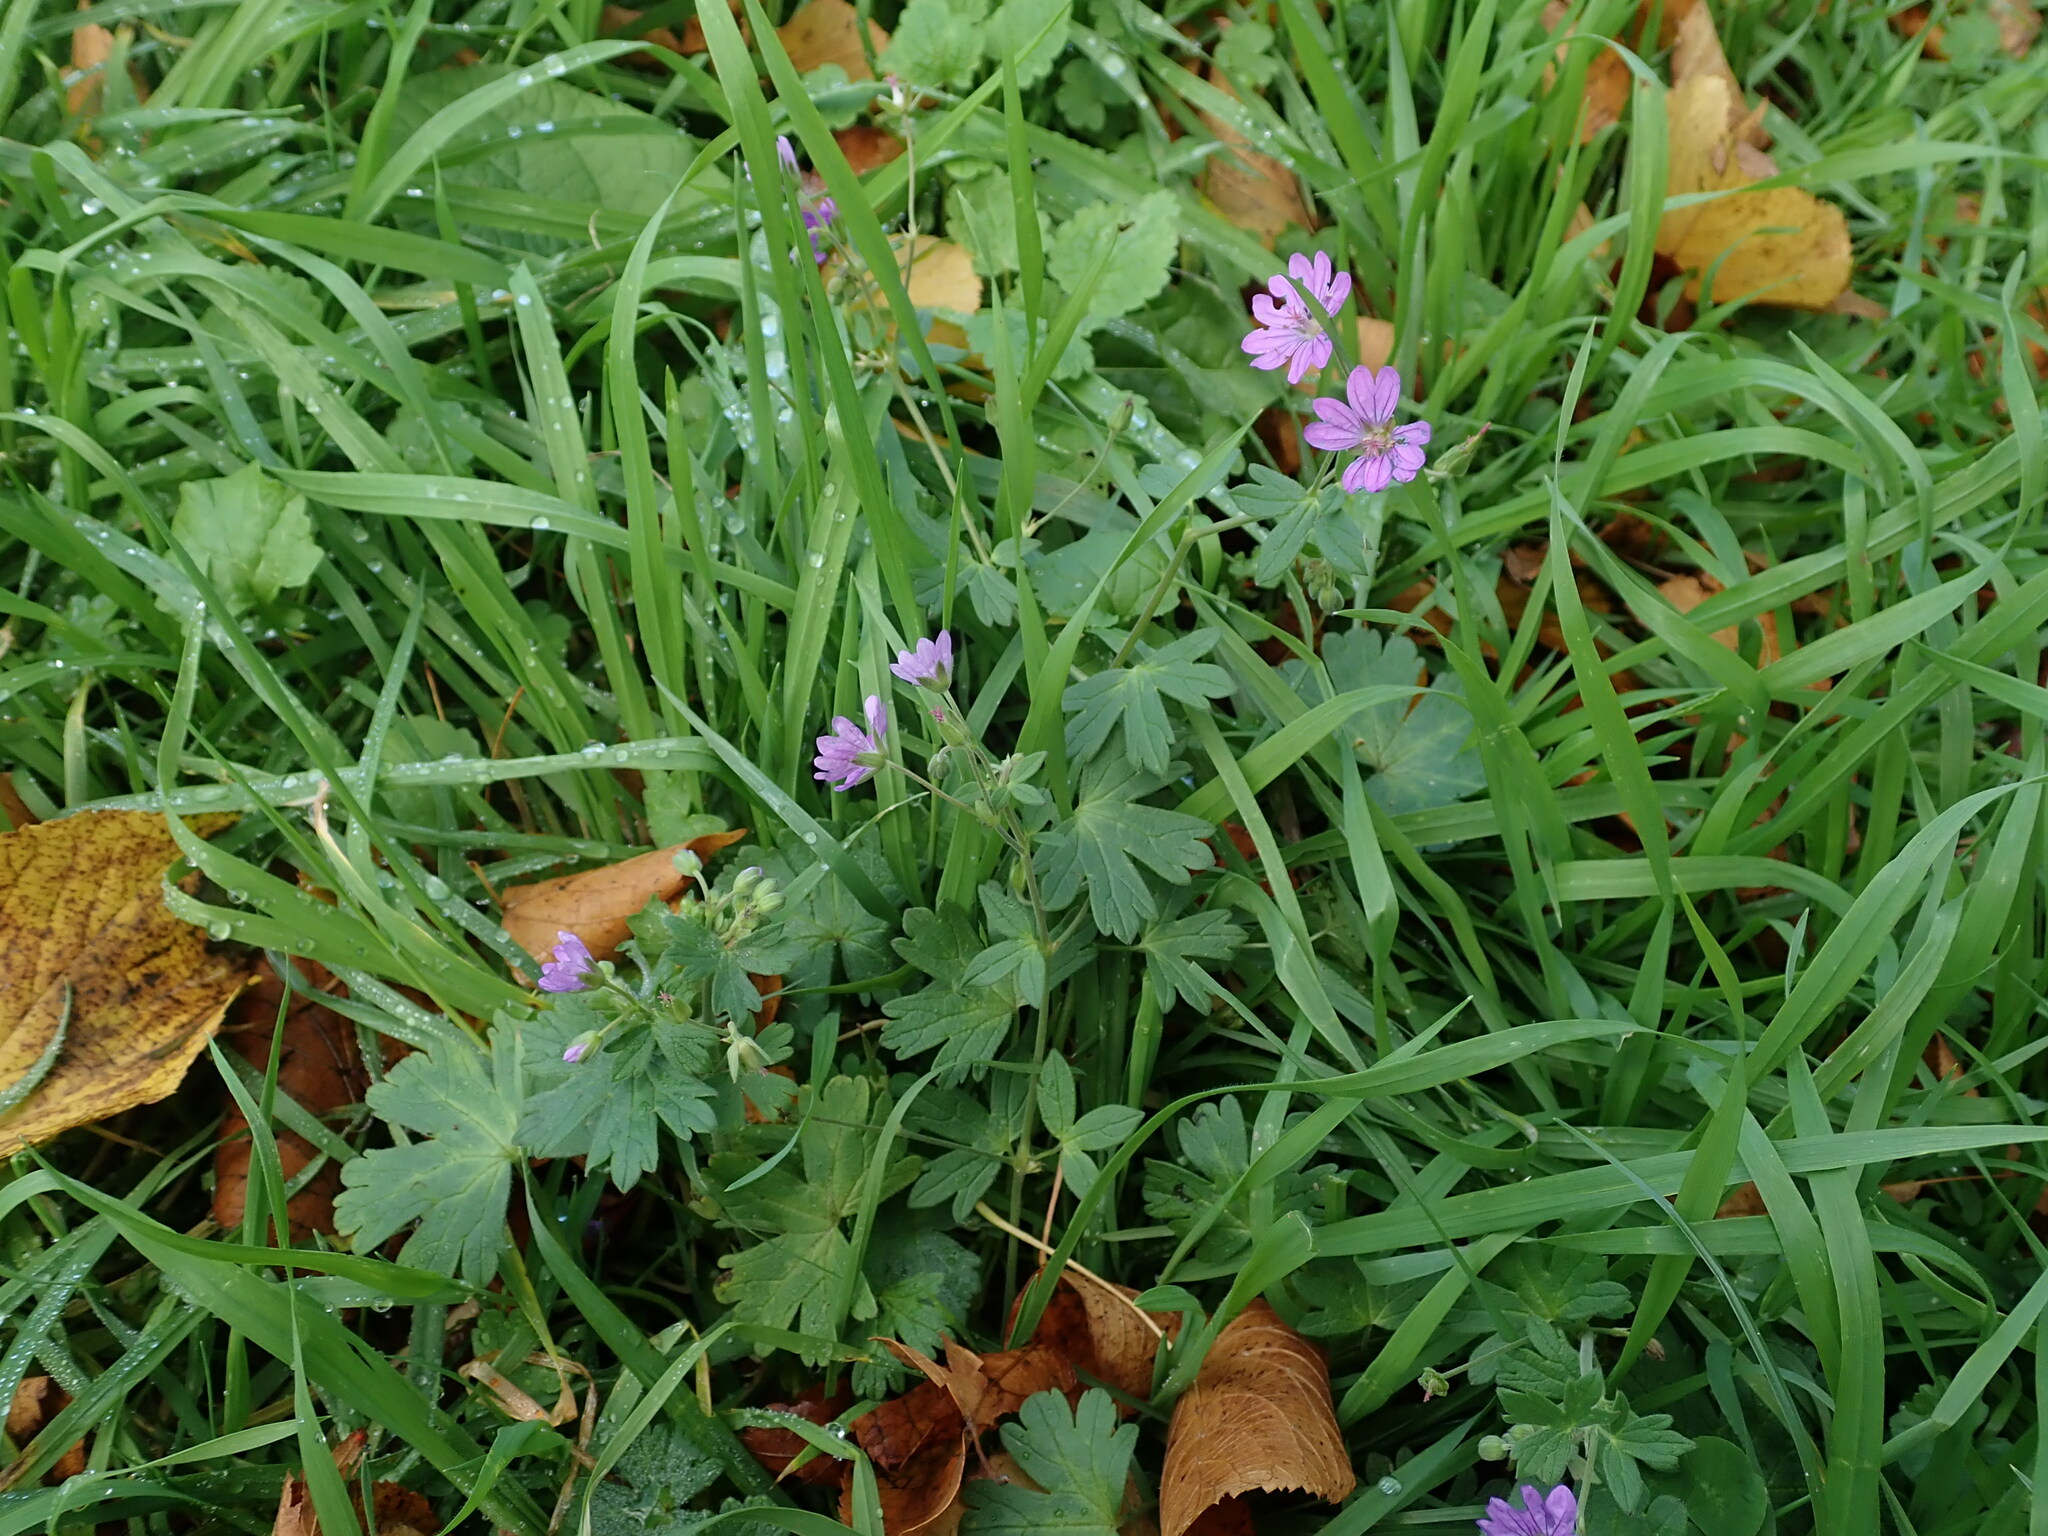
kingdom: Plantae
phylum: Tracheophyta
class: Magnoliopsida
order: Geraniales
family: Geraniaceae
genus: Geranium
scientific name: Geranium pyrenaicum
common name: Hedgerow crane's-bill
